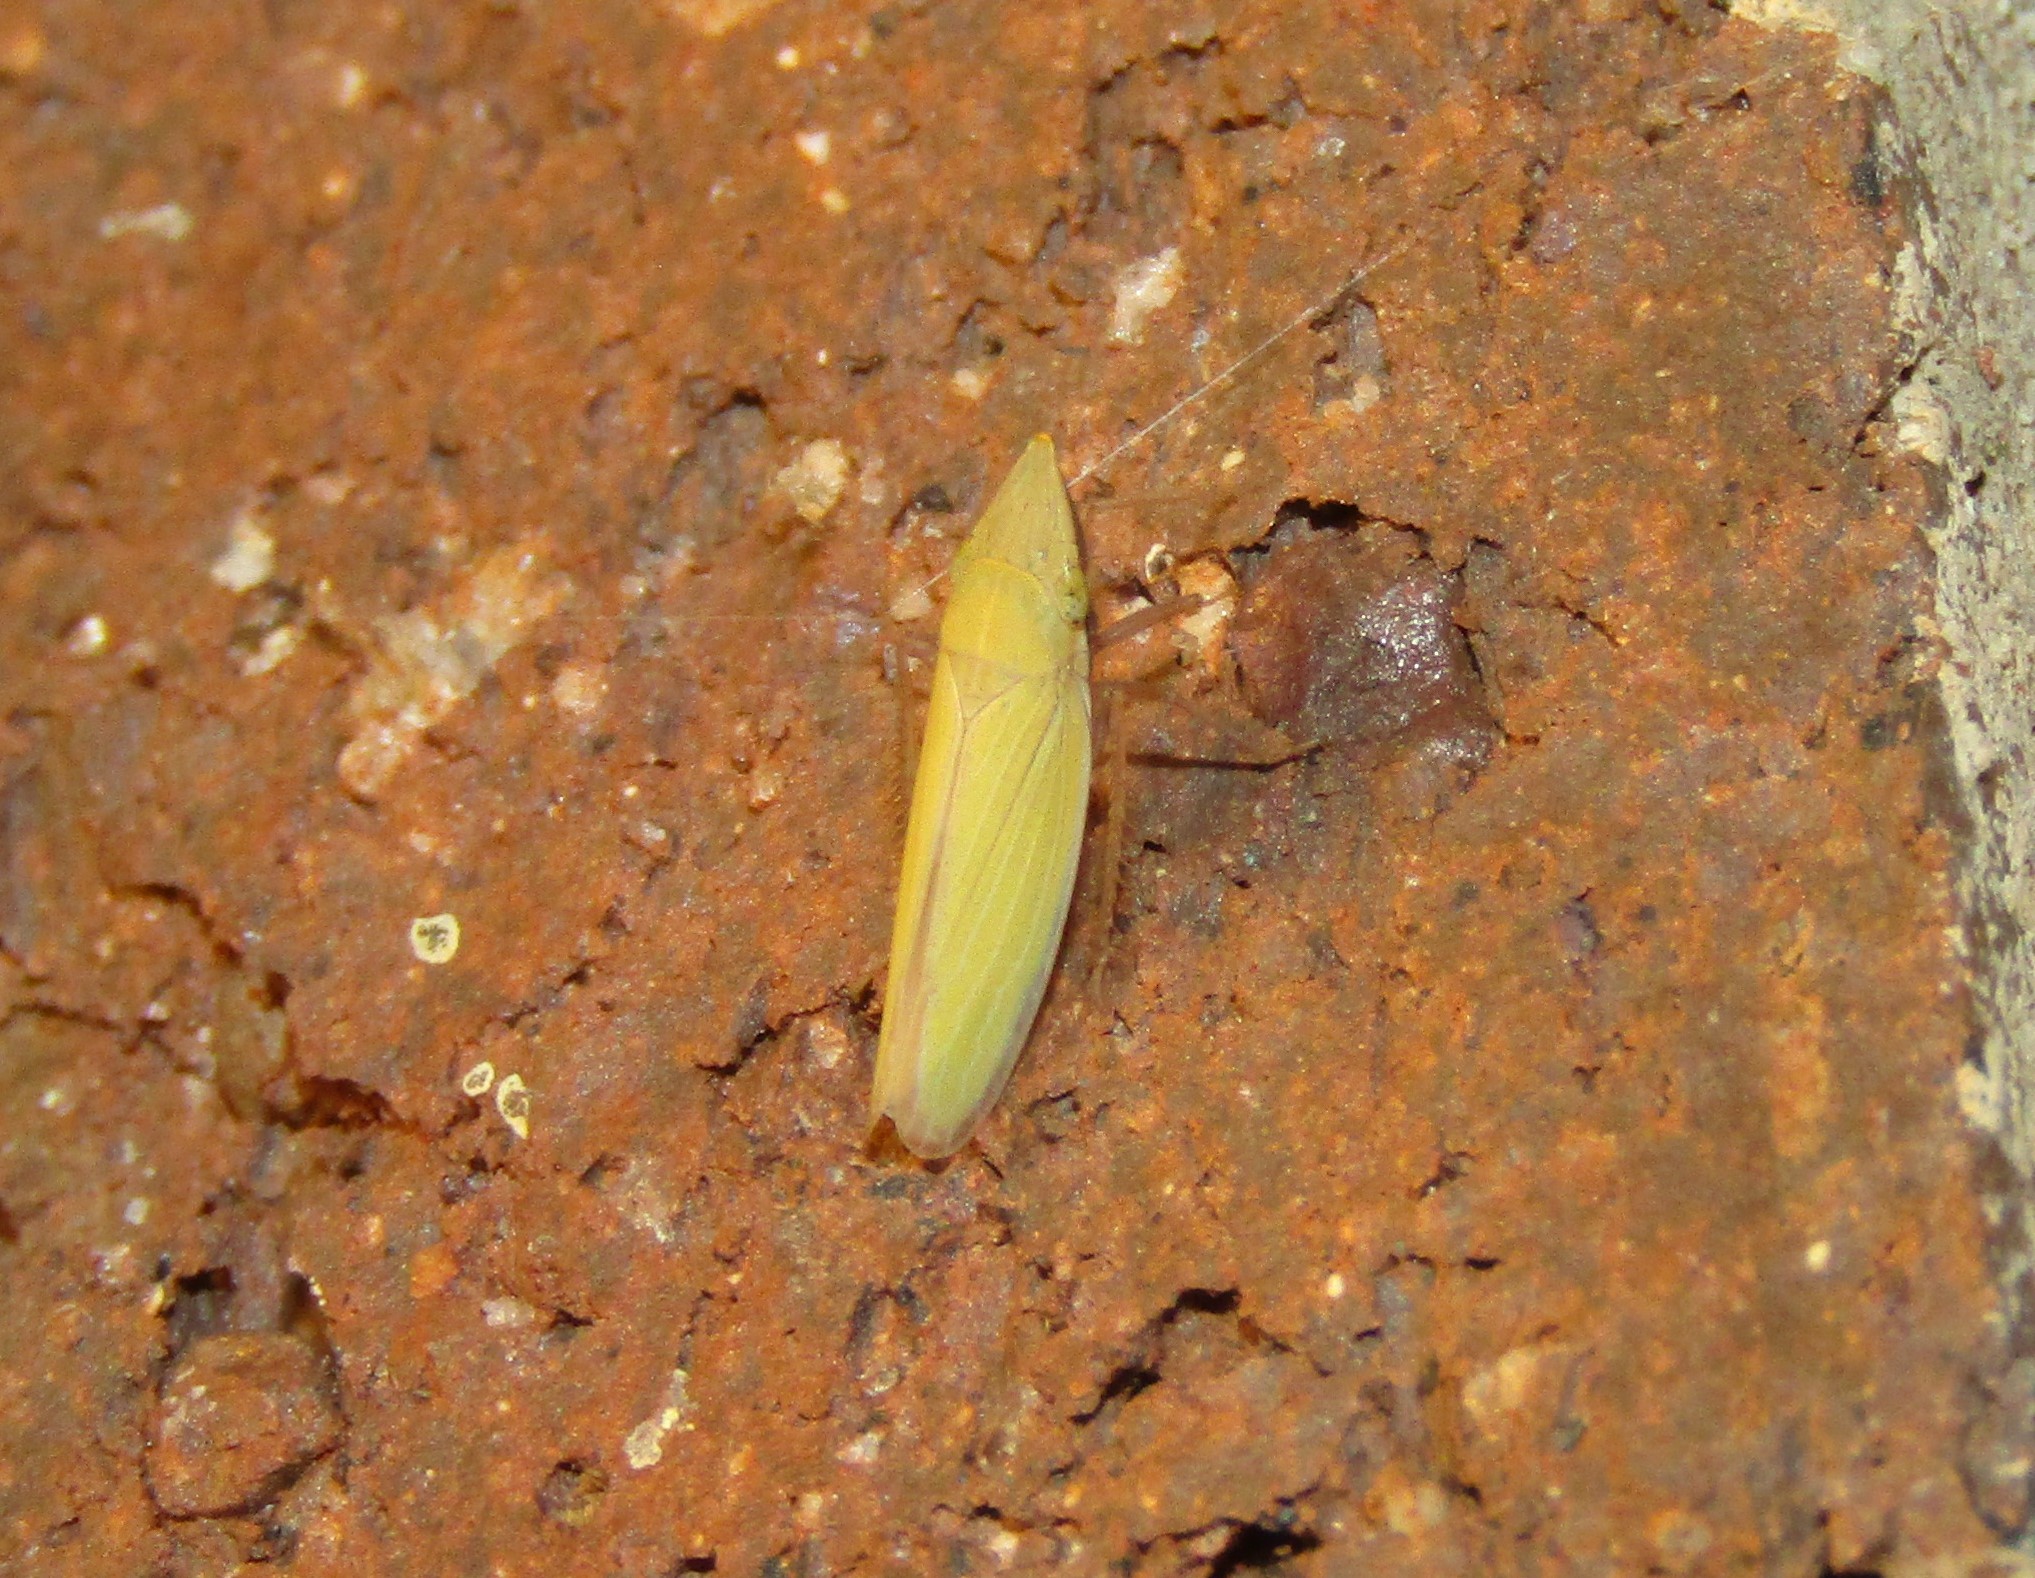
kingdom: Animalia
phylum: Arthropoda
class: Insecta
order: Hemiptera
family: Cicadellidae
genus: Draeculacephala
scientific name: Draeculacephala antica
